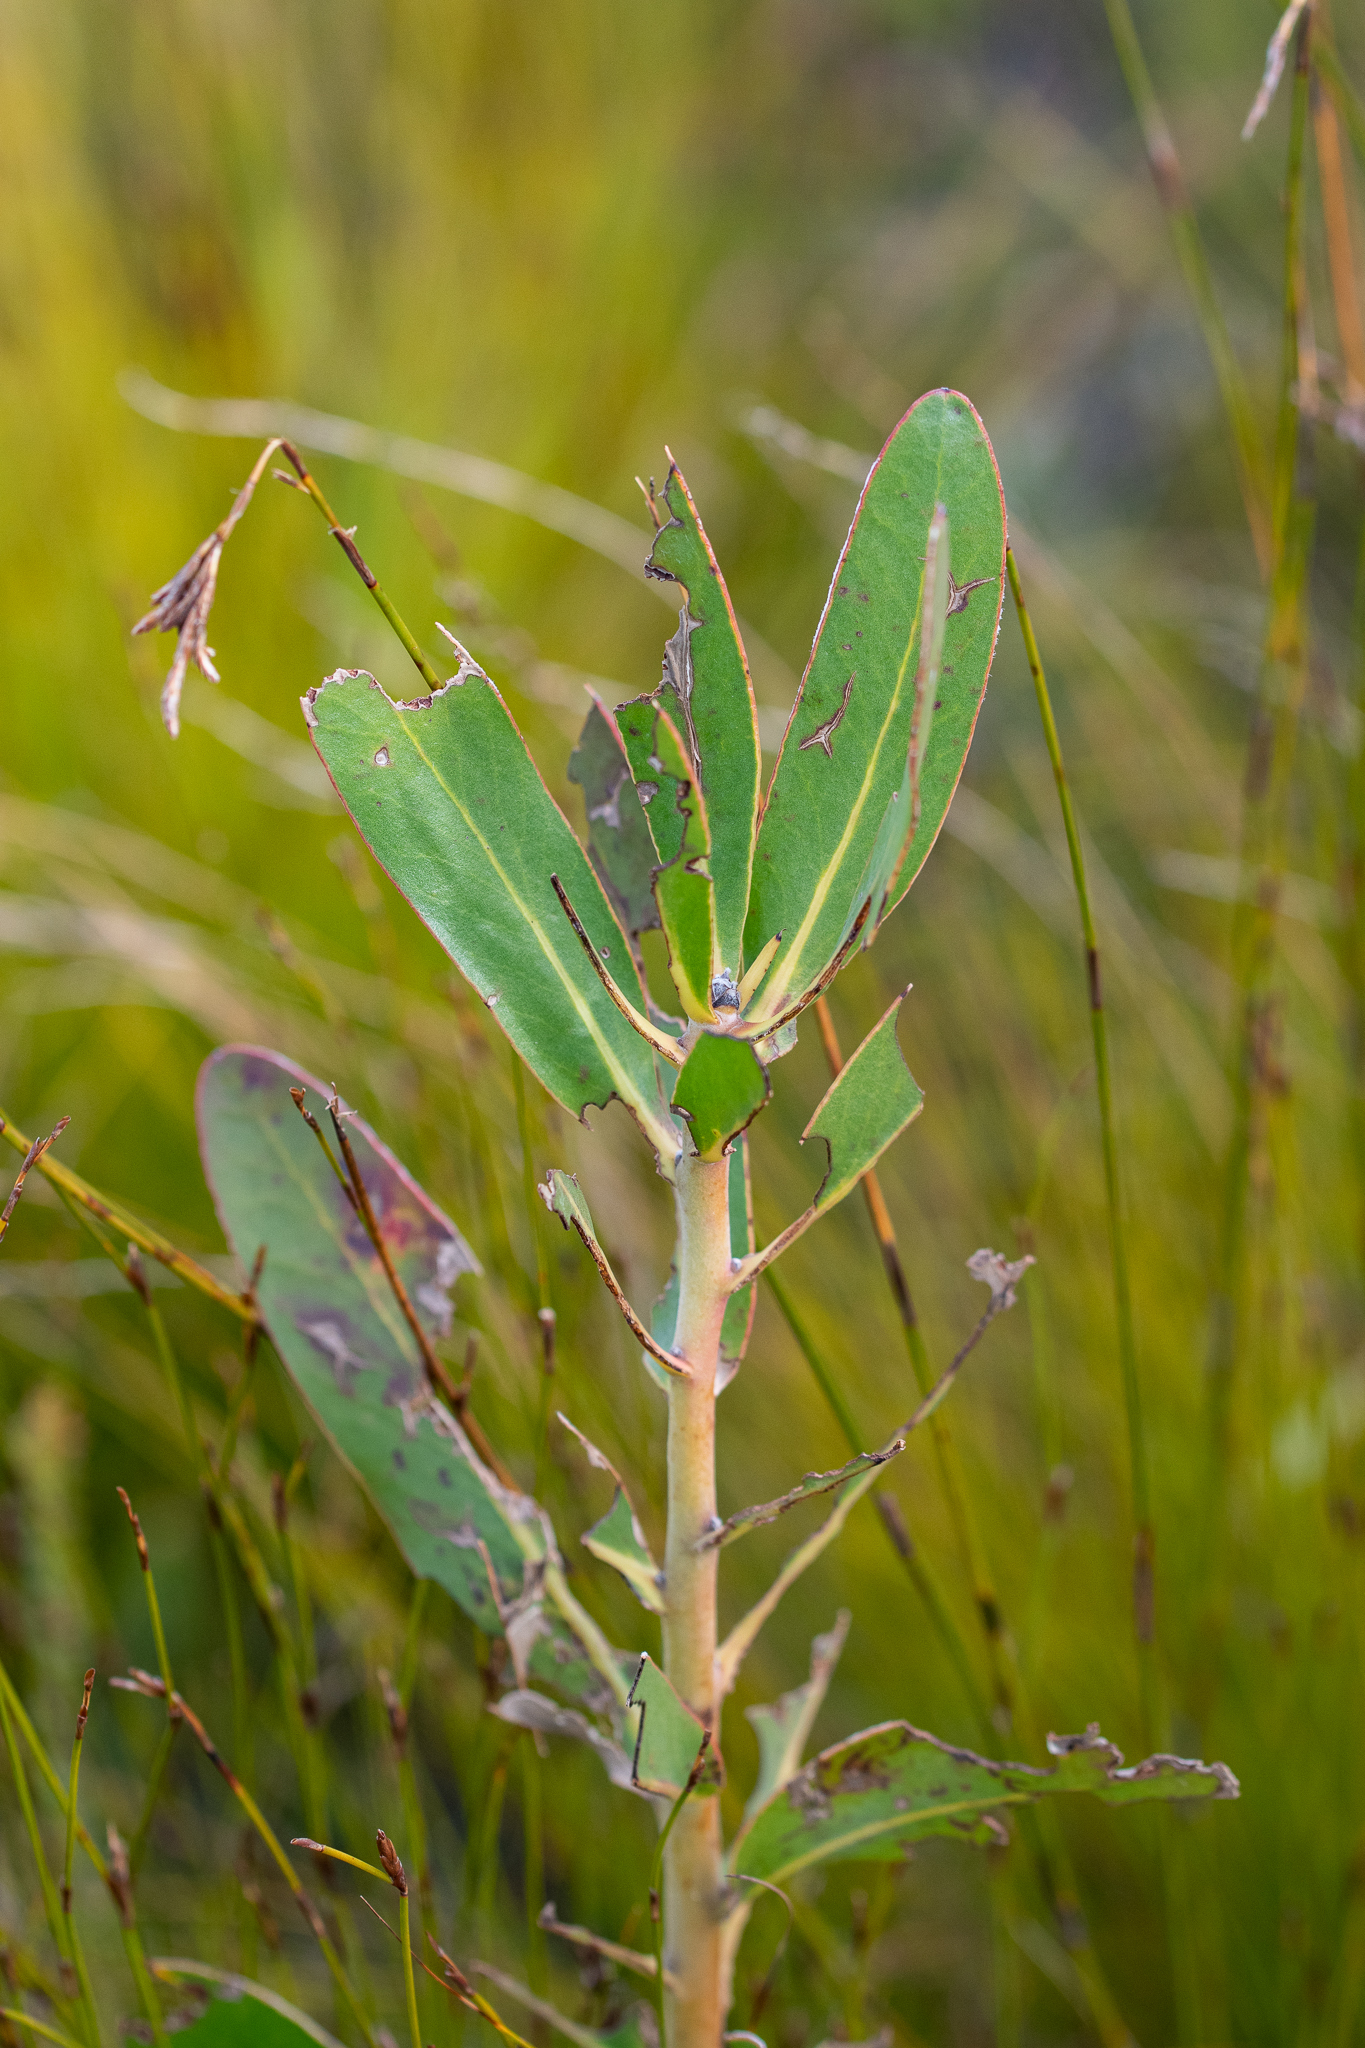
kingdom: Plantae
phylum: Tracheophyta
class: Magnoliopsida
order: Proteales
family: Proteaceae
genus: Protea
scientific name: Protea compacta
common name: Bot river protea
